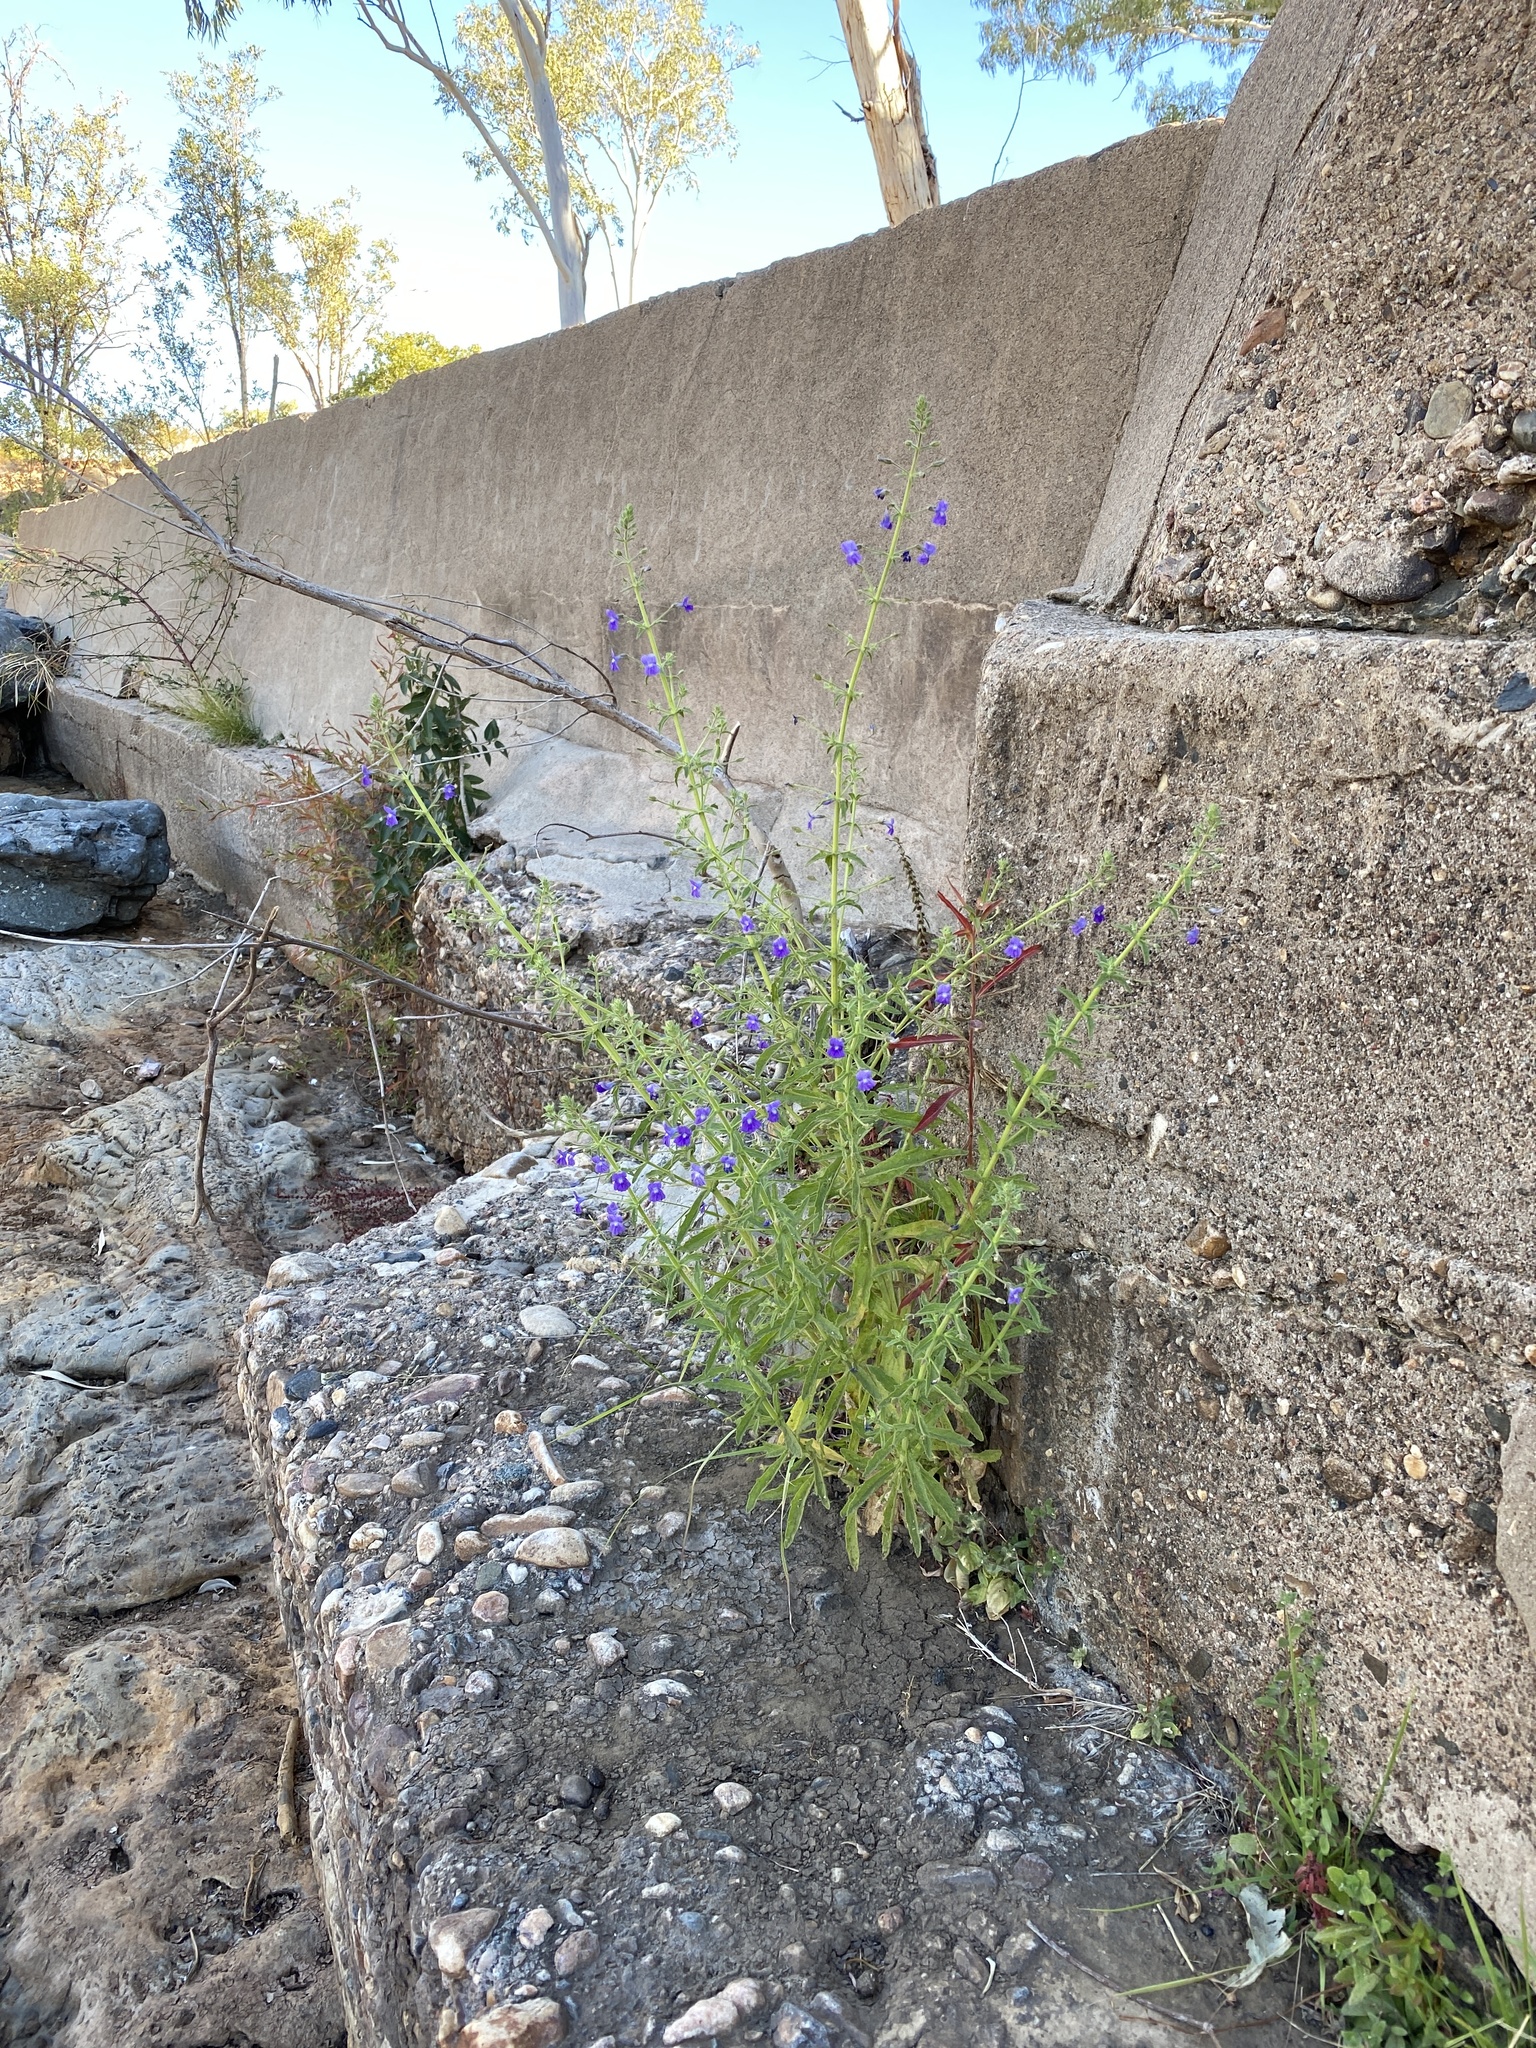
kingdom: Plantae
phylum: Tracheophyta
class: Magnoliopsida
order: Lamiales
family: Plantaginaceae
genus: Stemodia
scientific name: Stemodia viscosa
